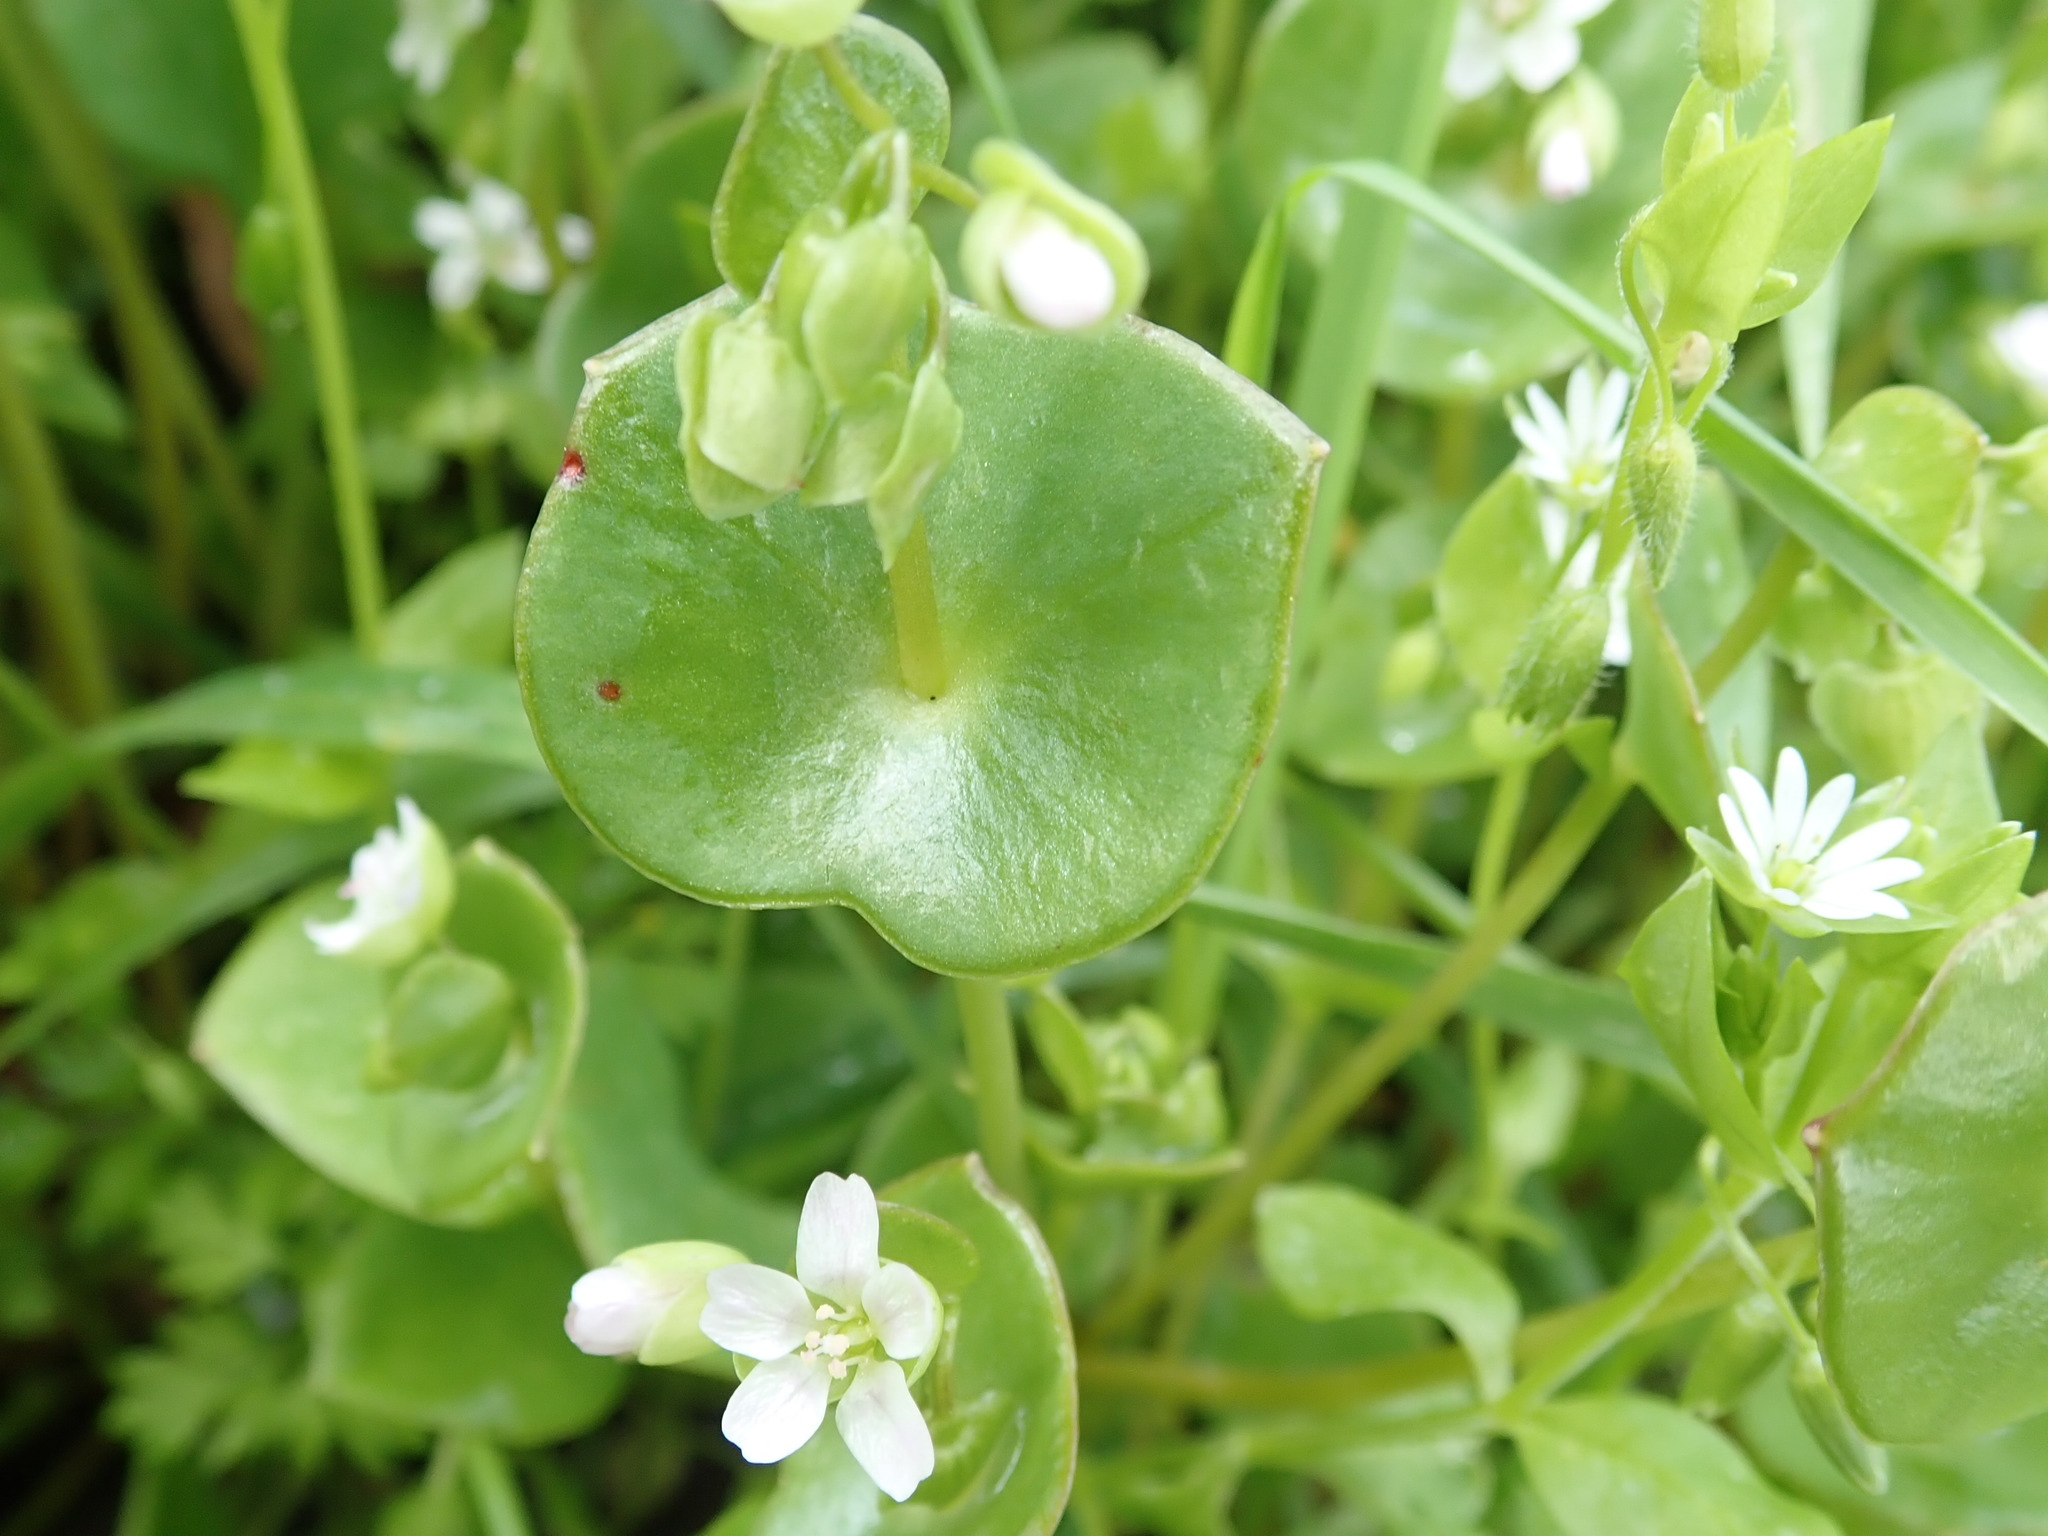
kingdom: Plantae
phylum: Tracheophyta
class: Magnoliopsida
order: Caryophyllales
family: Montiaceae
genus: Claytonia
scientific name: Claytonia perfoliata
